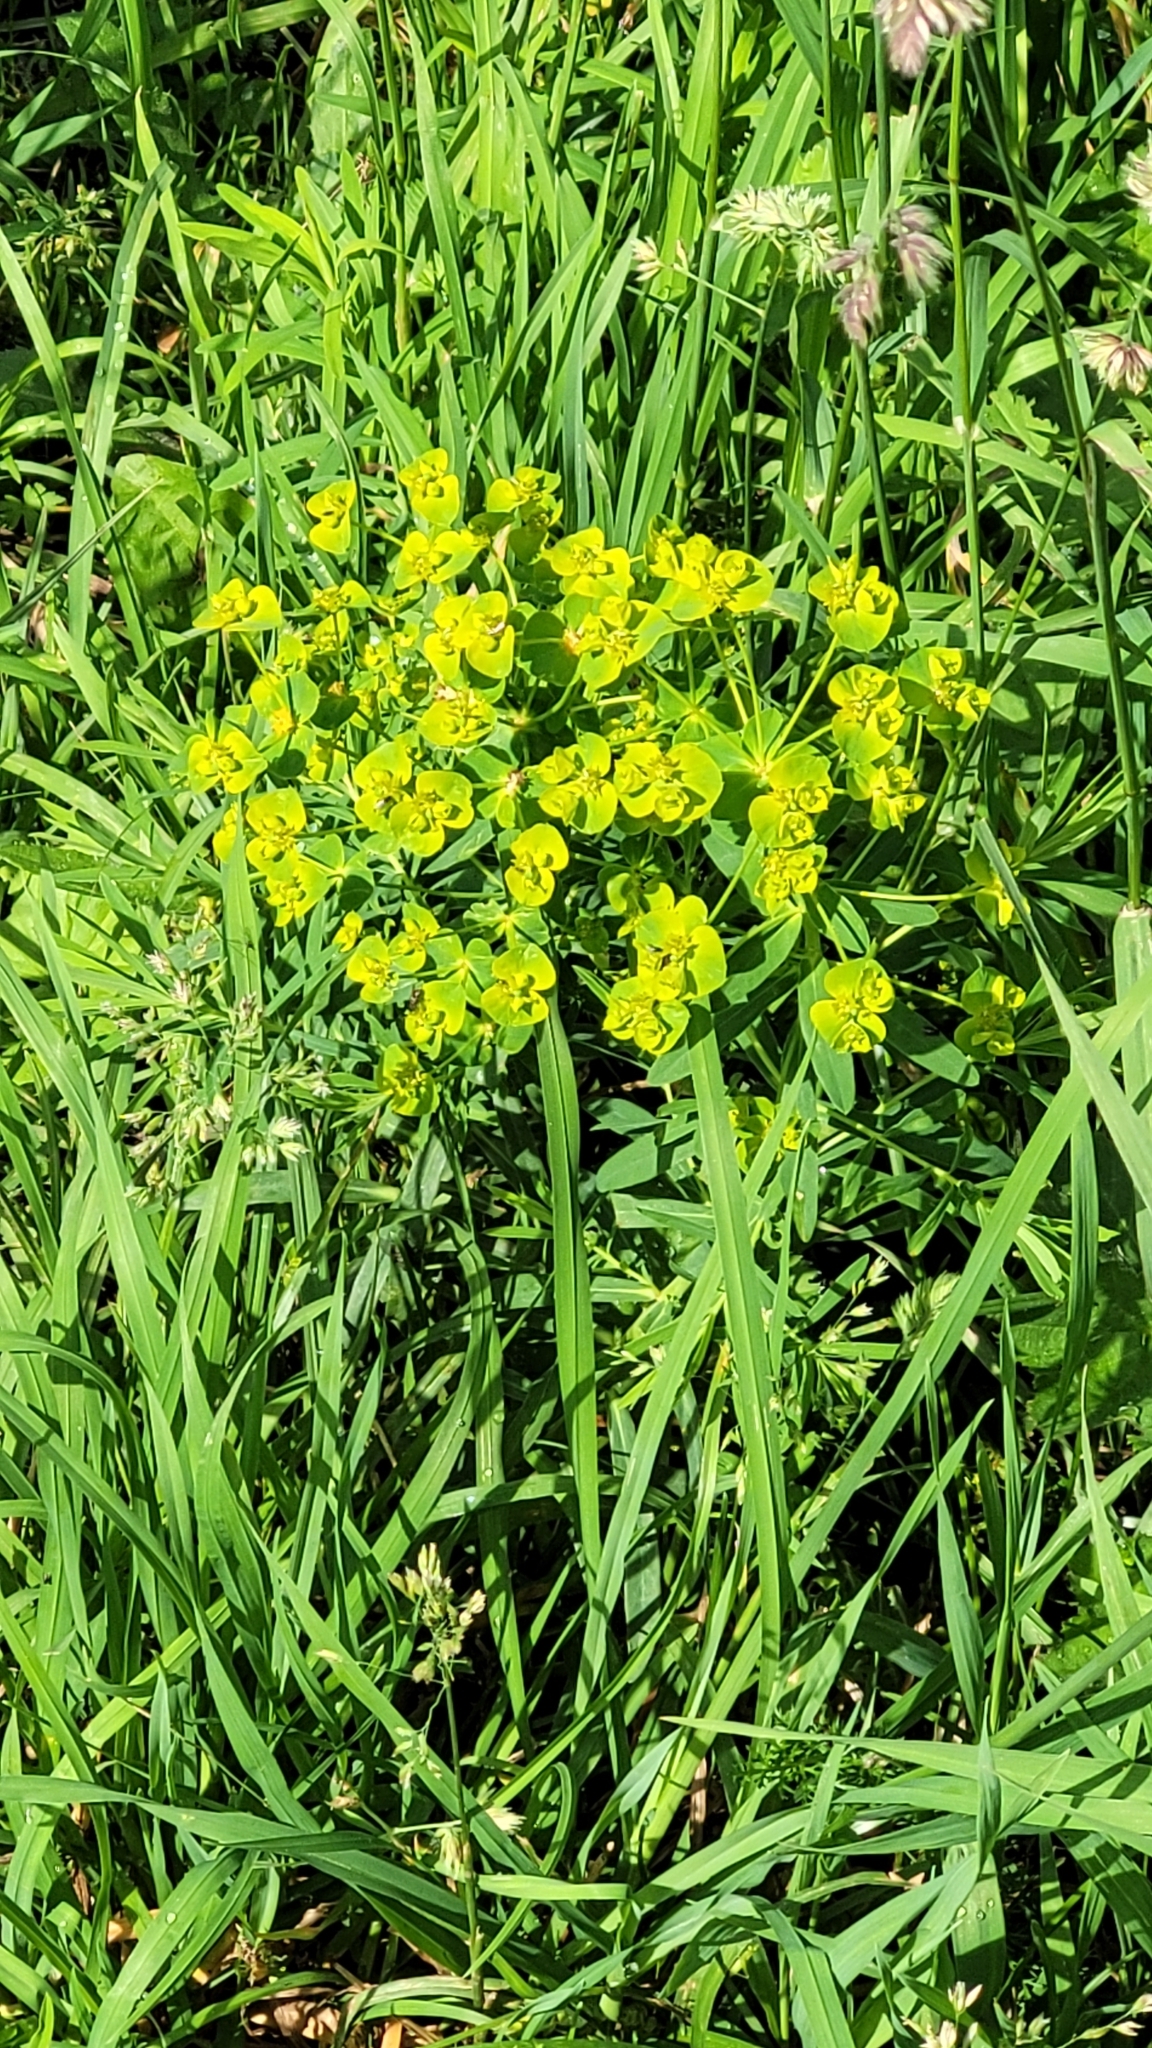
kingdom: Plantae
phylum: Tracheophyta
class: Magnoliopsida
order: Malpighiales
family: Euphorbiaceae
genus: Euphorbia
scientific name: Euphorbia virgata
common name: Leafy spurge
